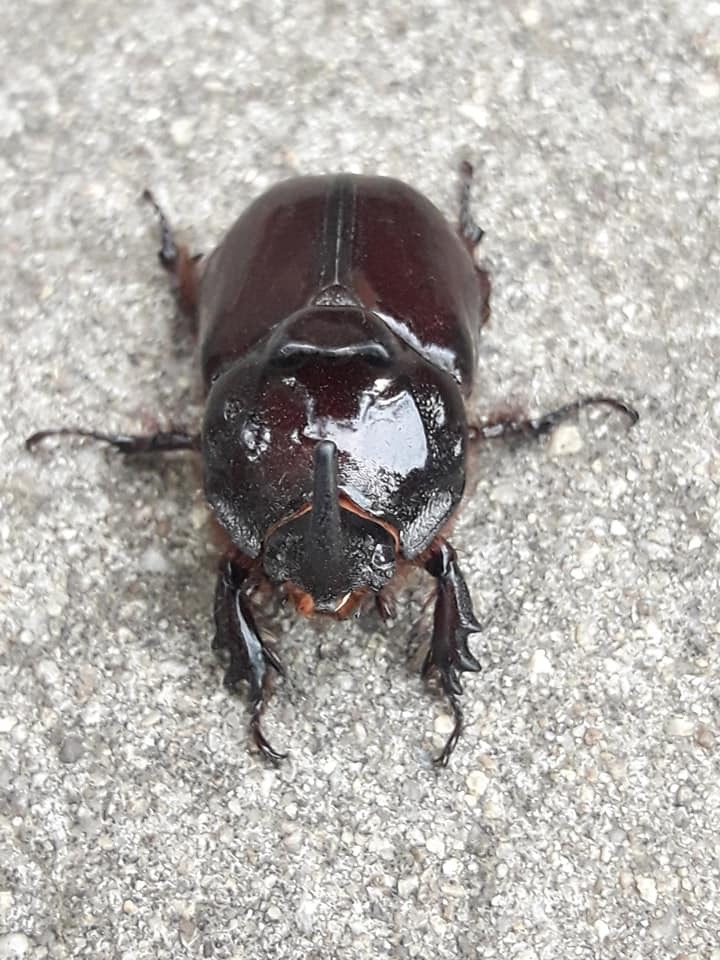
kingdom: Animalia
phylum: Arthropoda
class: Insecta
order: Coleoptera
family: Scarabaeidae
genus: Oryctes
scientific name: Oryctes nasicornis
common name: European rhinoceros beetle
